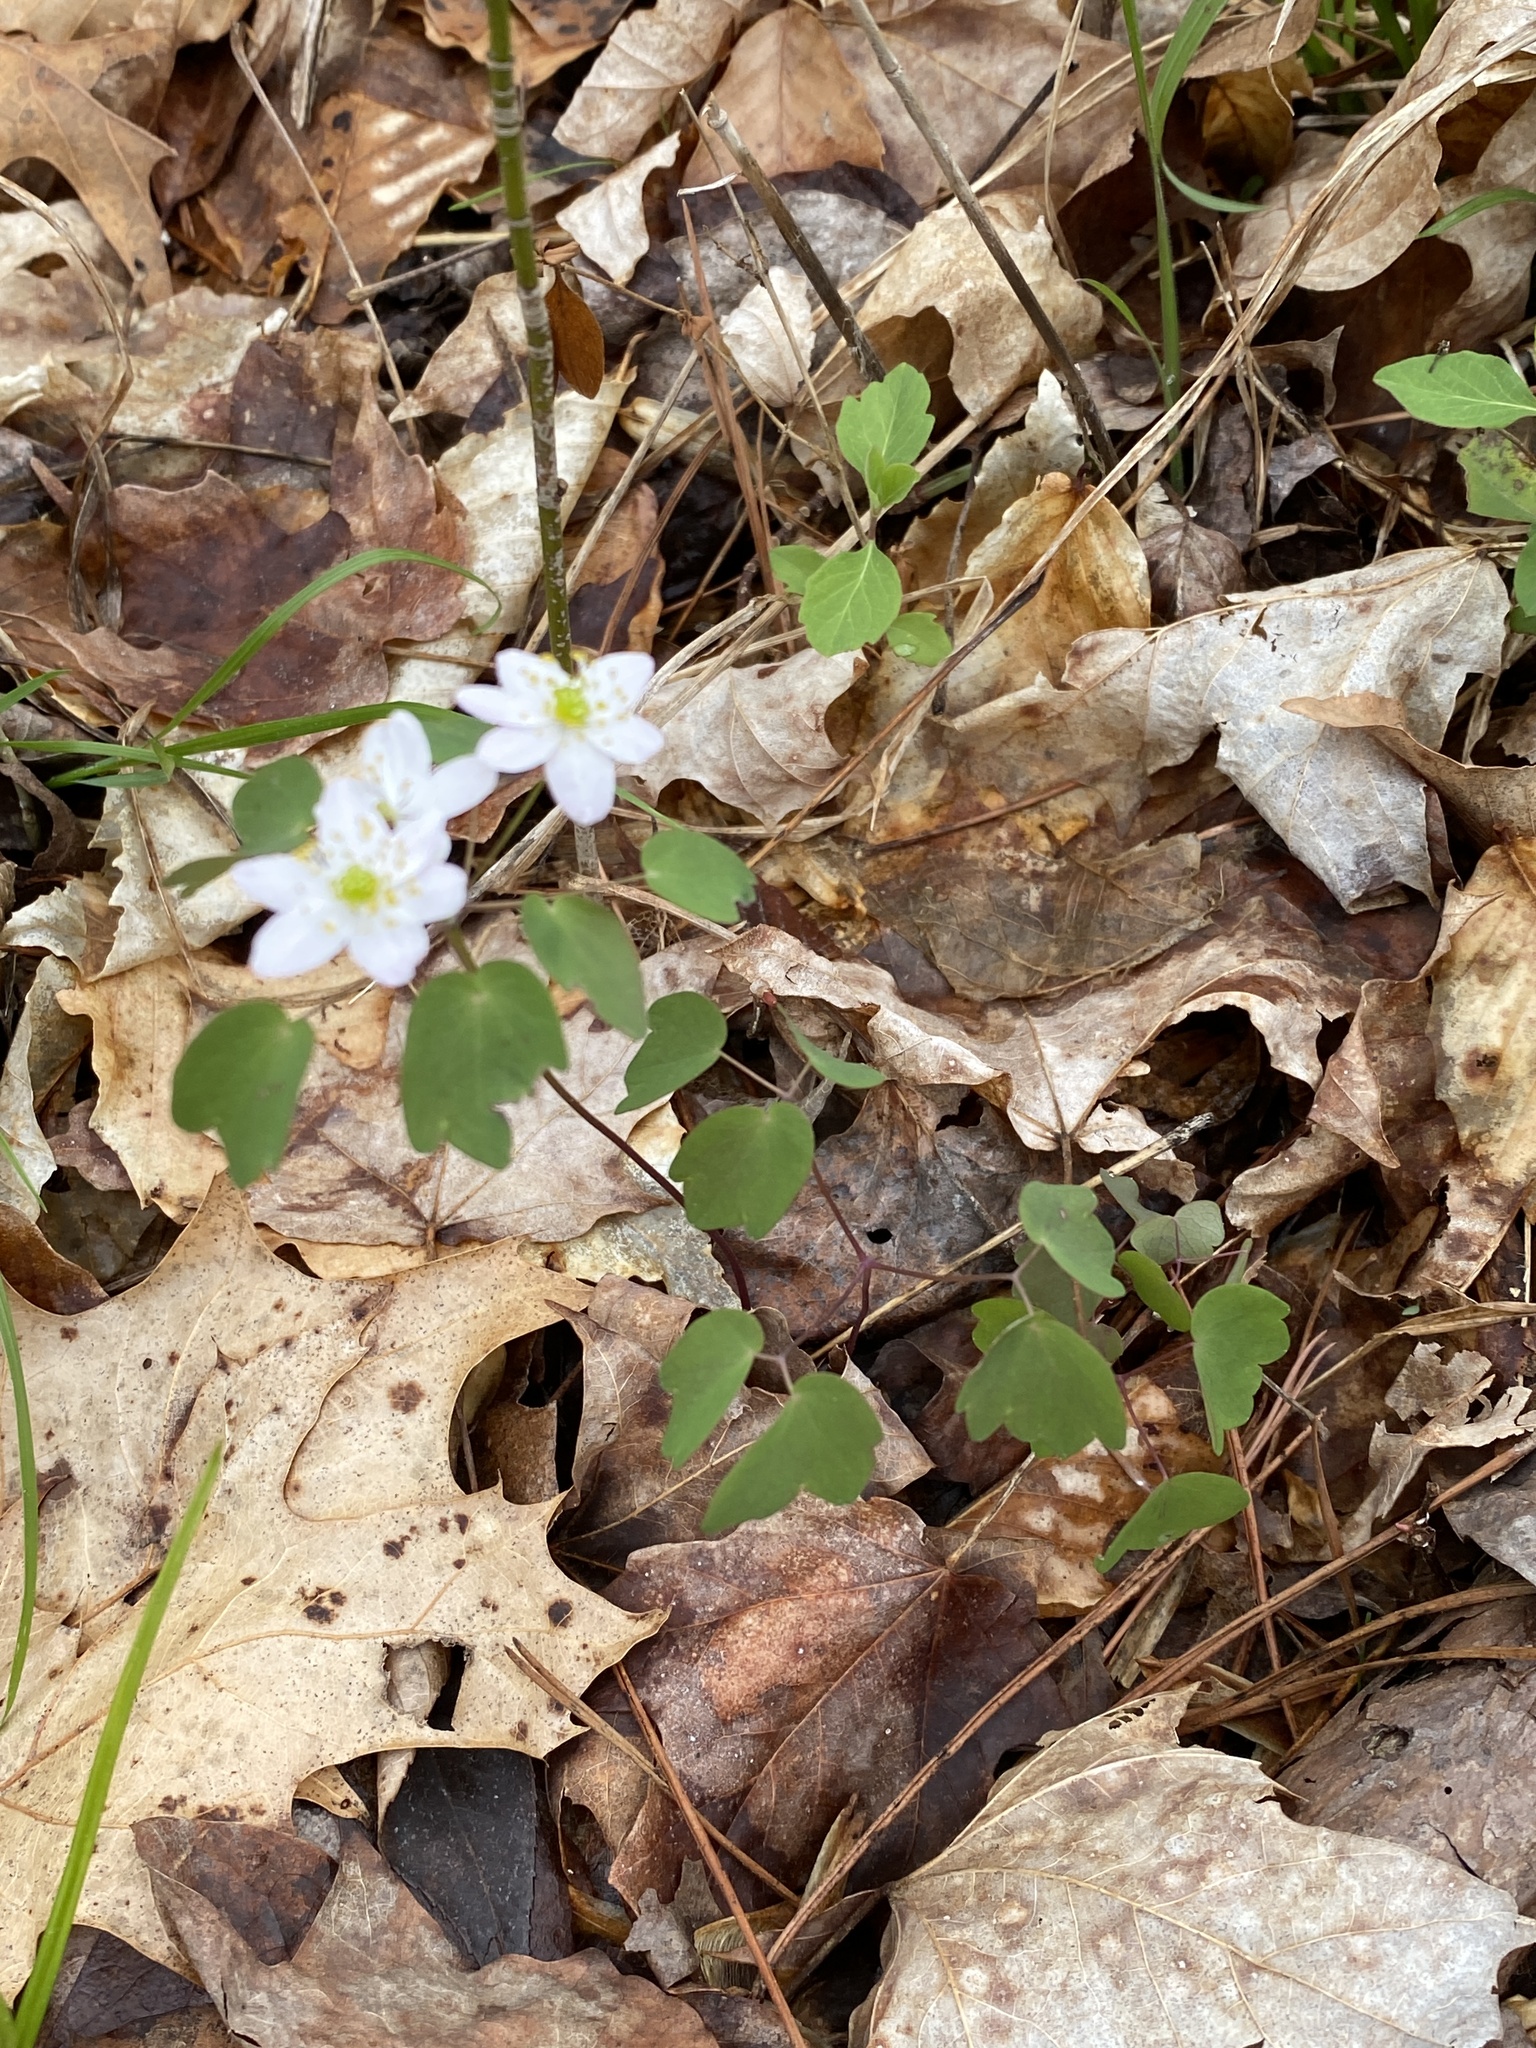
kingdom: Plantae
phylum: Tracheophyta
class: Magnoliopsida
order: Ranunculales
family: Ranunculaceae
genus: Thalictrum
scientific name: Thalictrum thalictroides
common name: Rue-anemone
